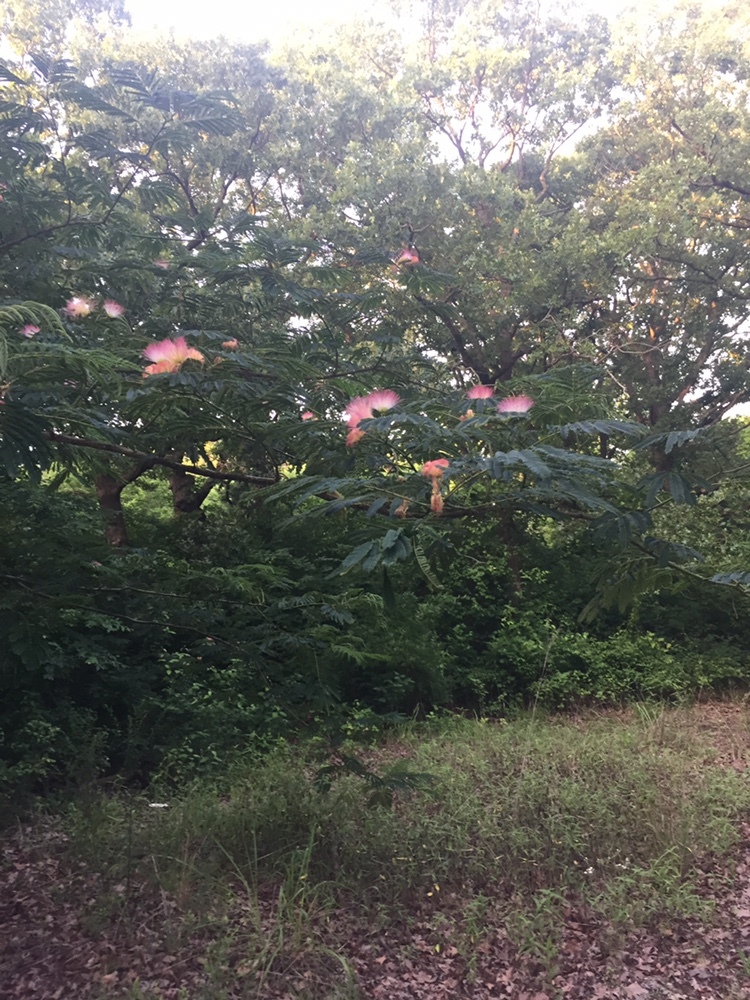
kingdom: Plantae
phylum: Tracheophyta
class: Magnoliopsida
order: Fabales
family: Fabaceae
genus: Albizia
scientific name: Albizia julibrissin
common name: Silktree
